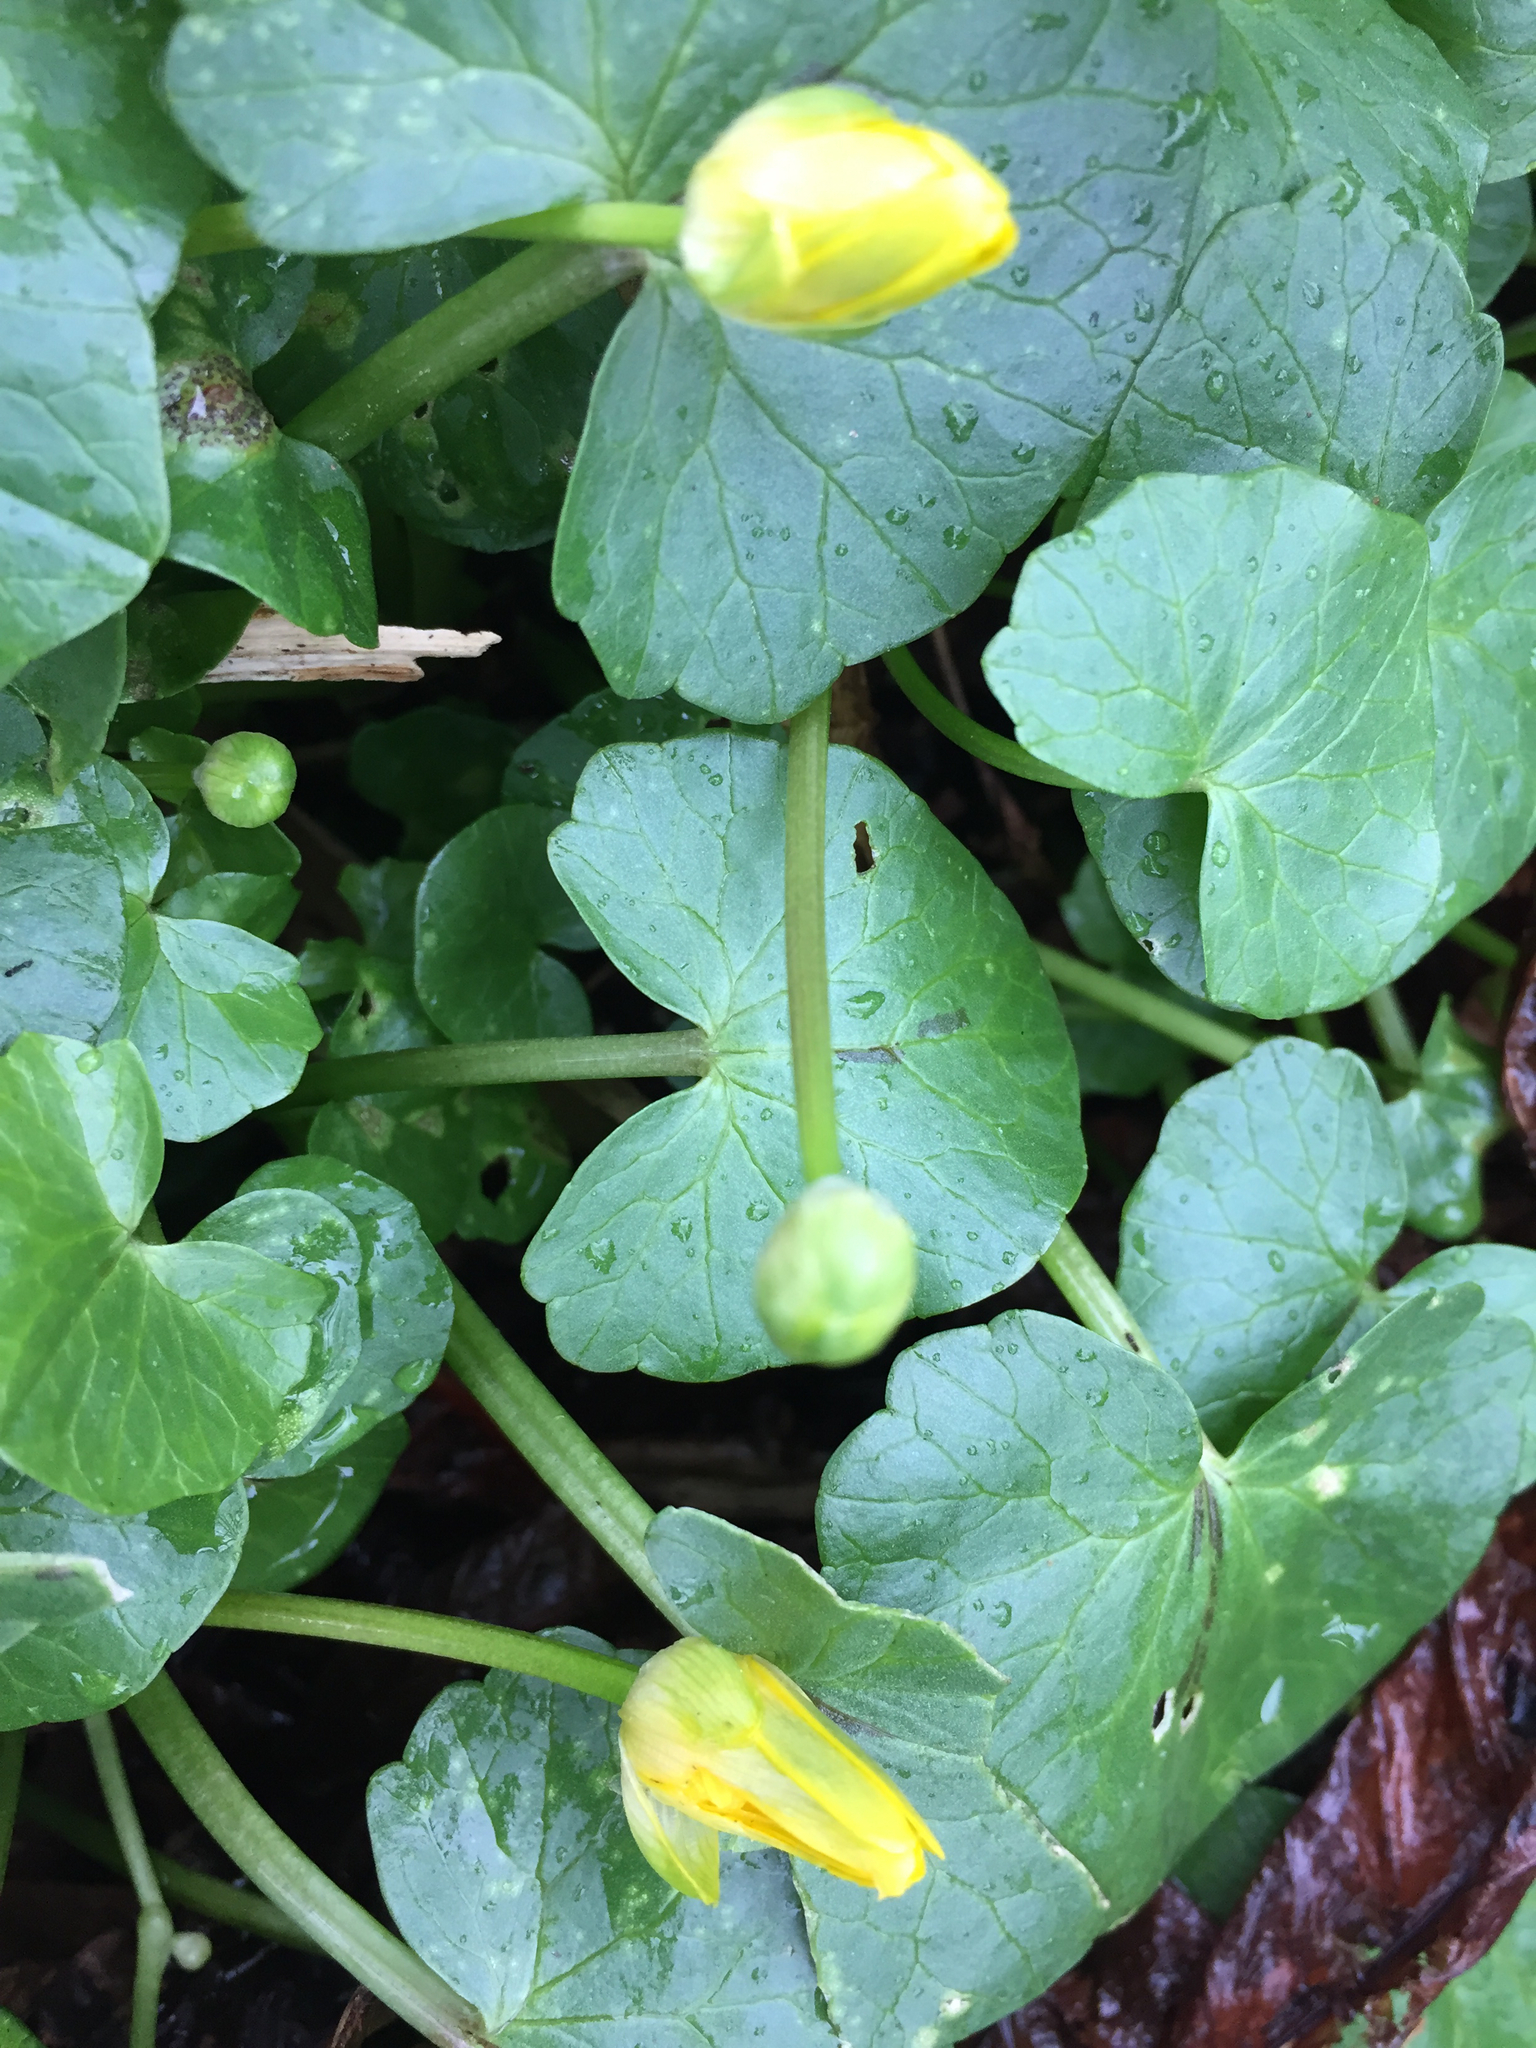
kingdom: Plantae
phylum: Tracheophyta
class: Magnoliopsida
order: Ranunculales
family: Ranunculaceae
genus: Ficaria
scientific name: Ficaria verna
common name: Lesser celandine
